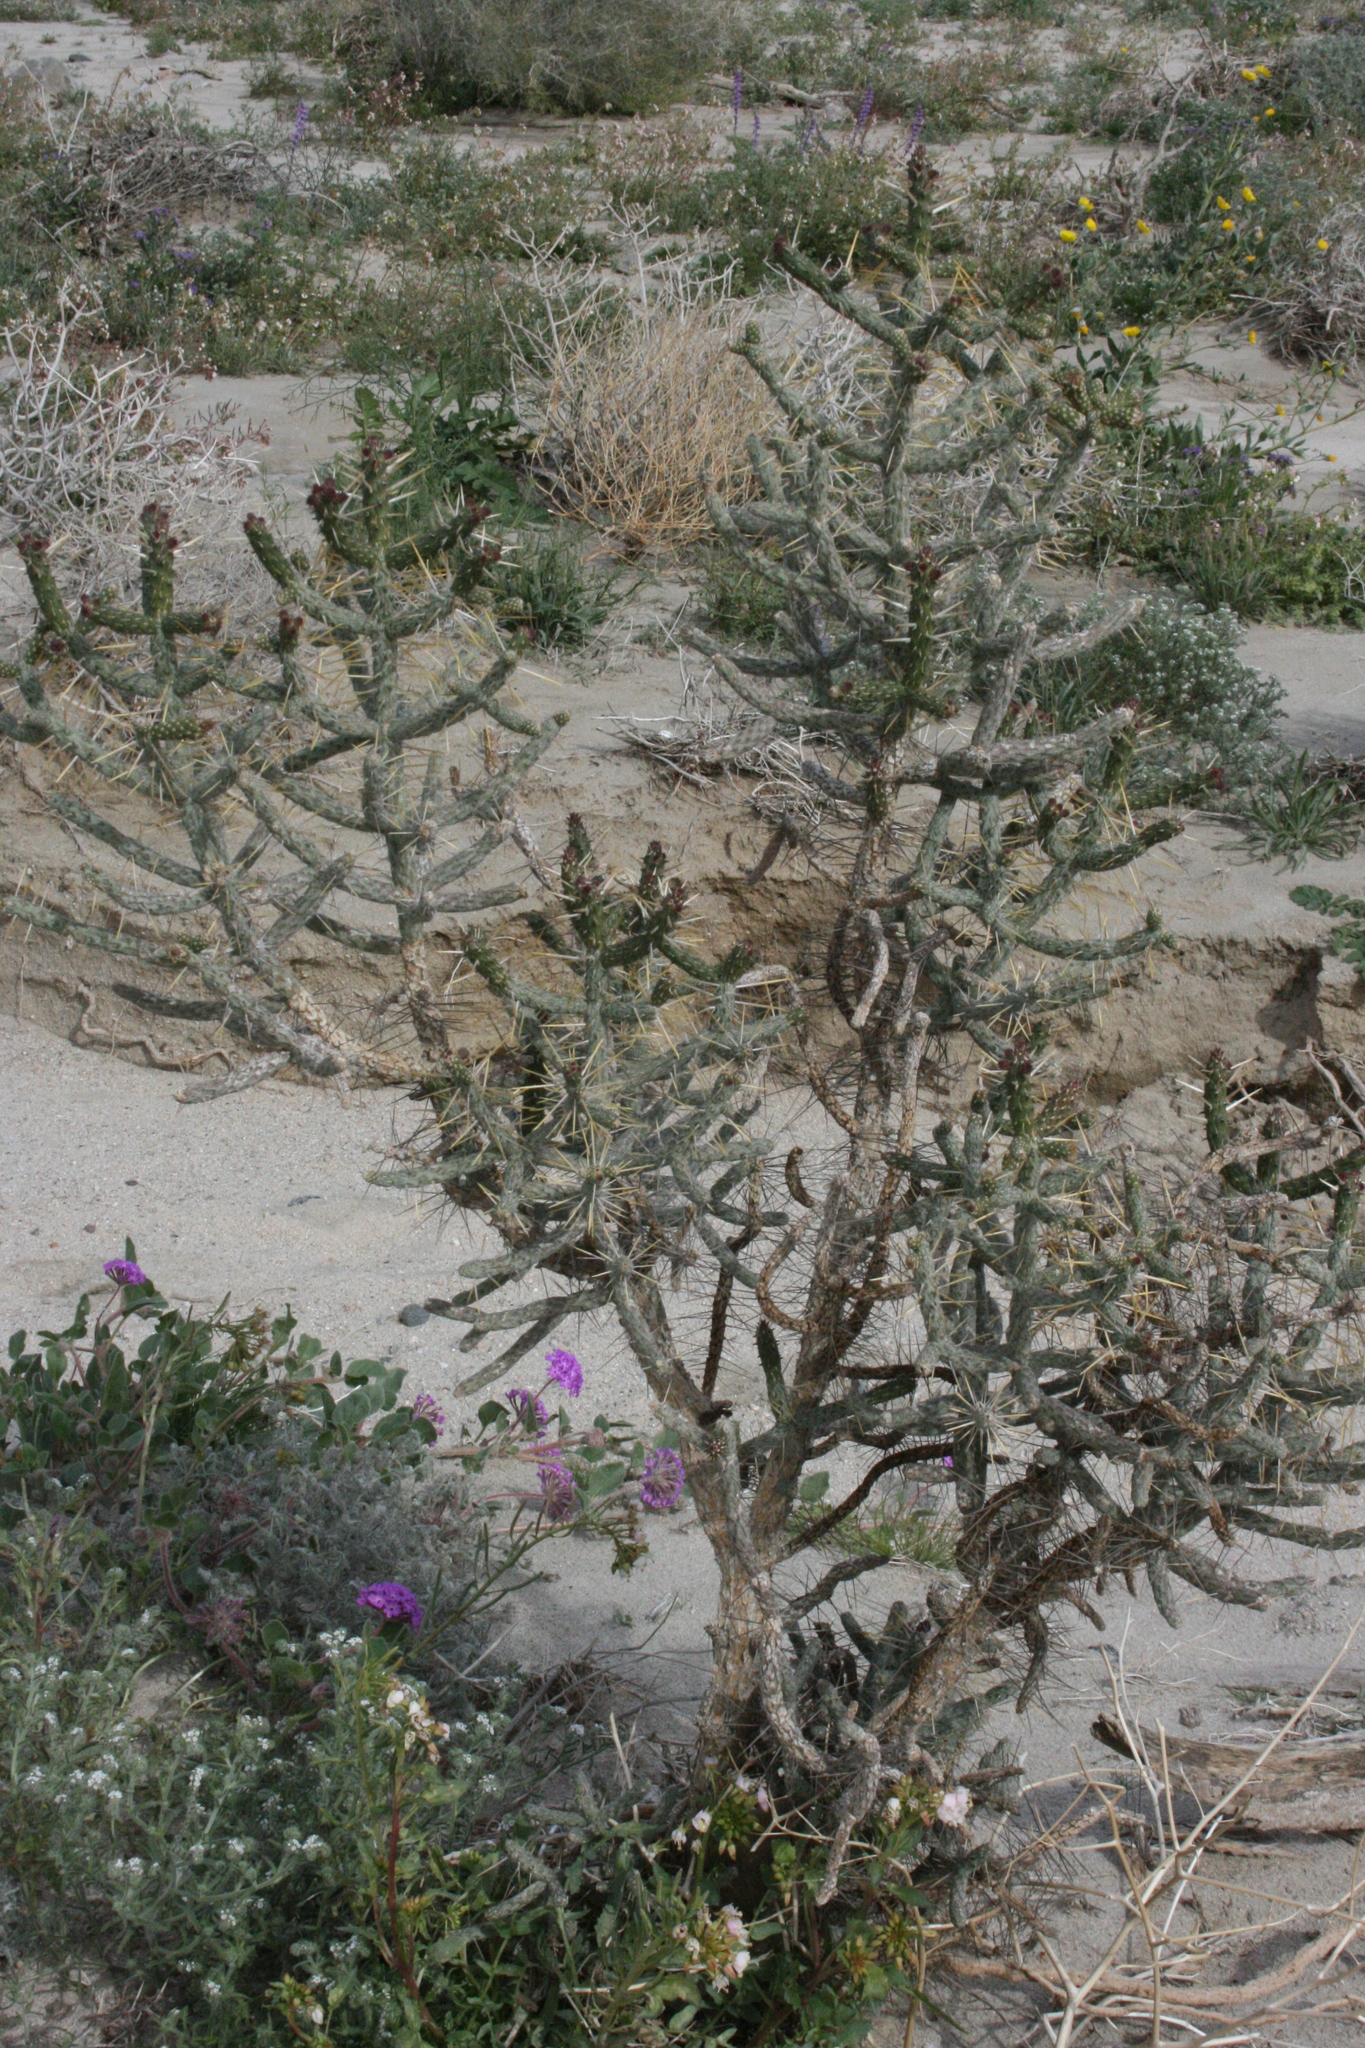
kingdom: Plantae
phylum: Tracheophyta
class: Magnoliopsida
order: Caryophyllales
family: Cactaceae
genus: Cylindropuntia
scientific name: Cylindropuntia ramosissima
